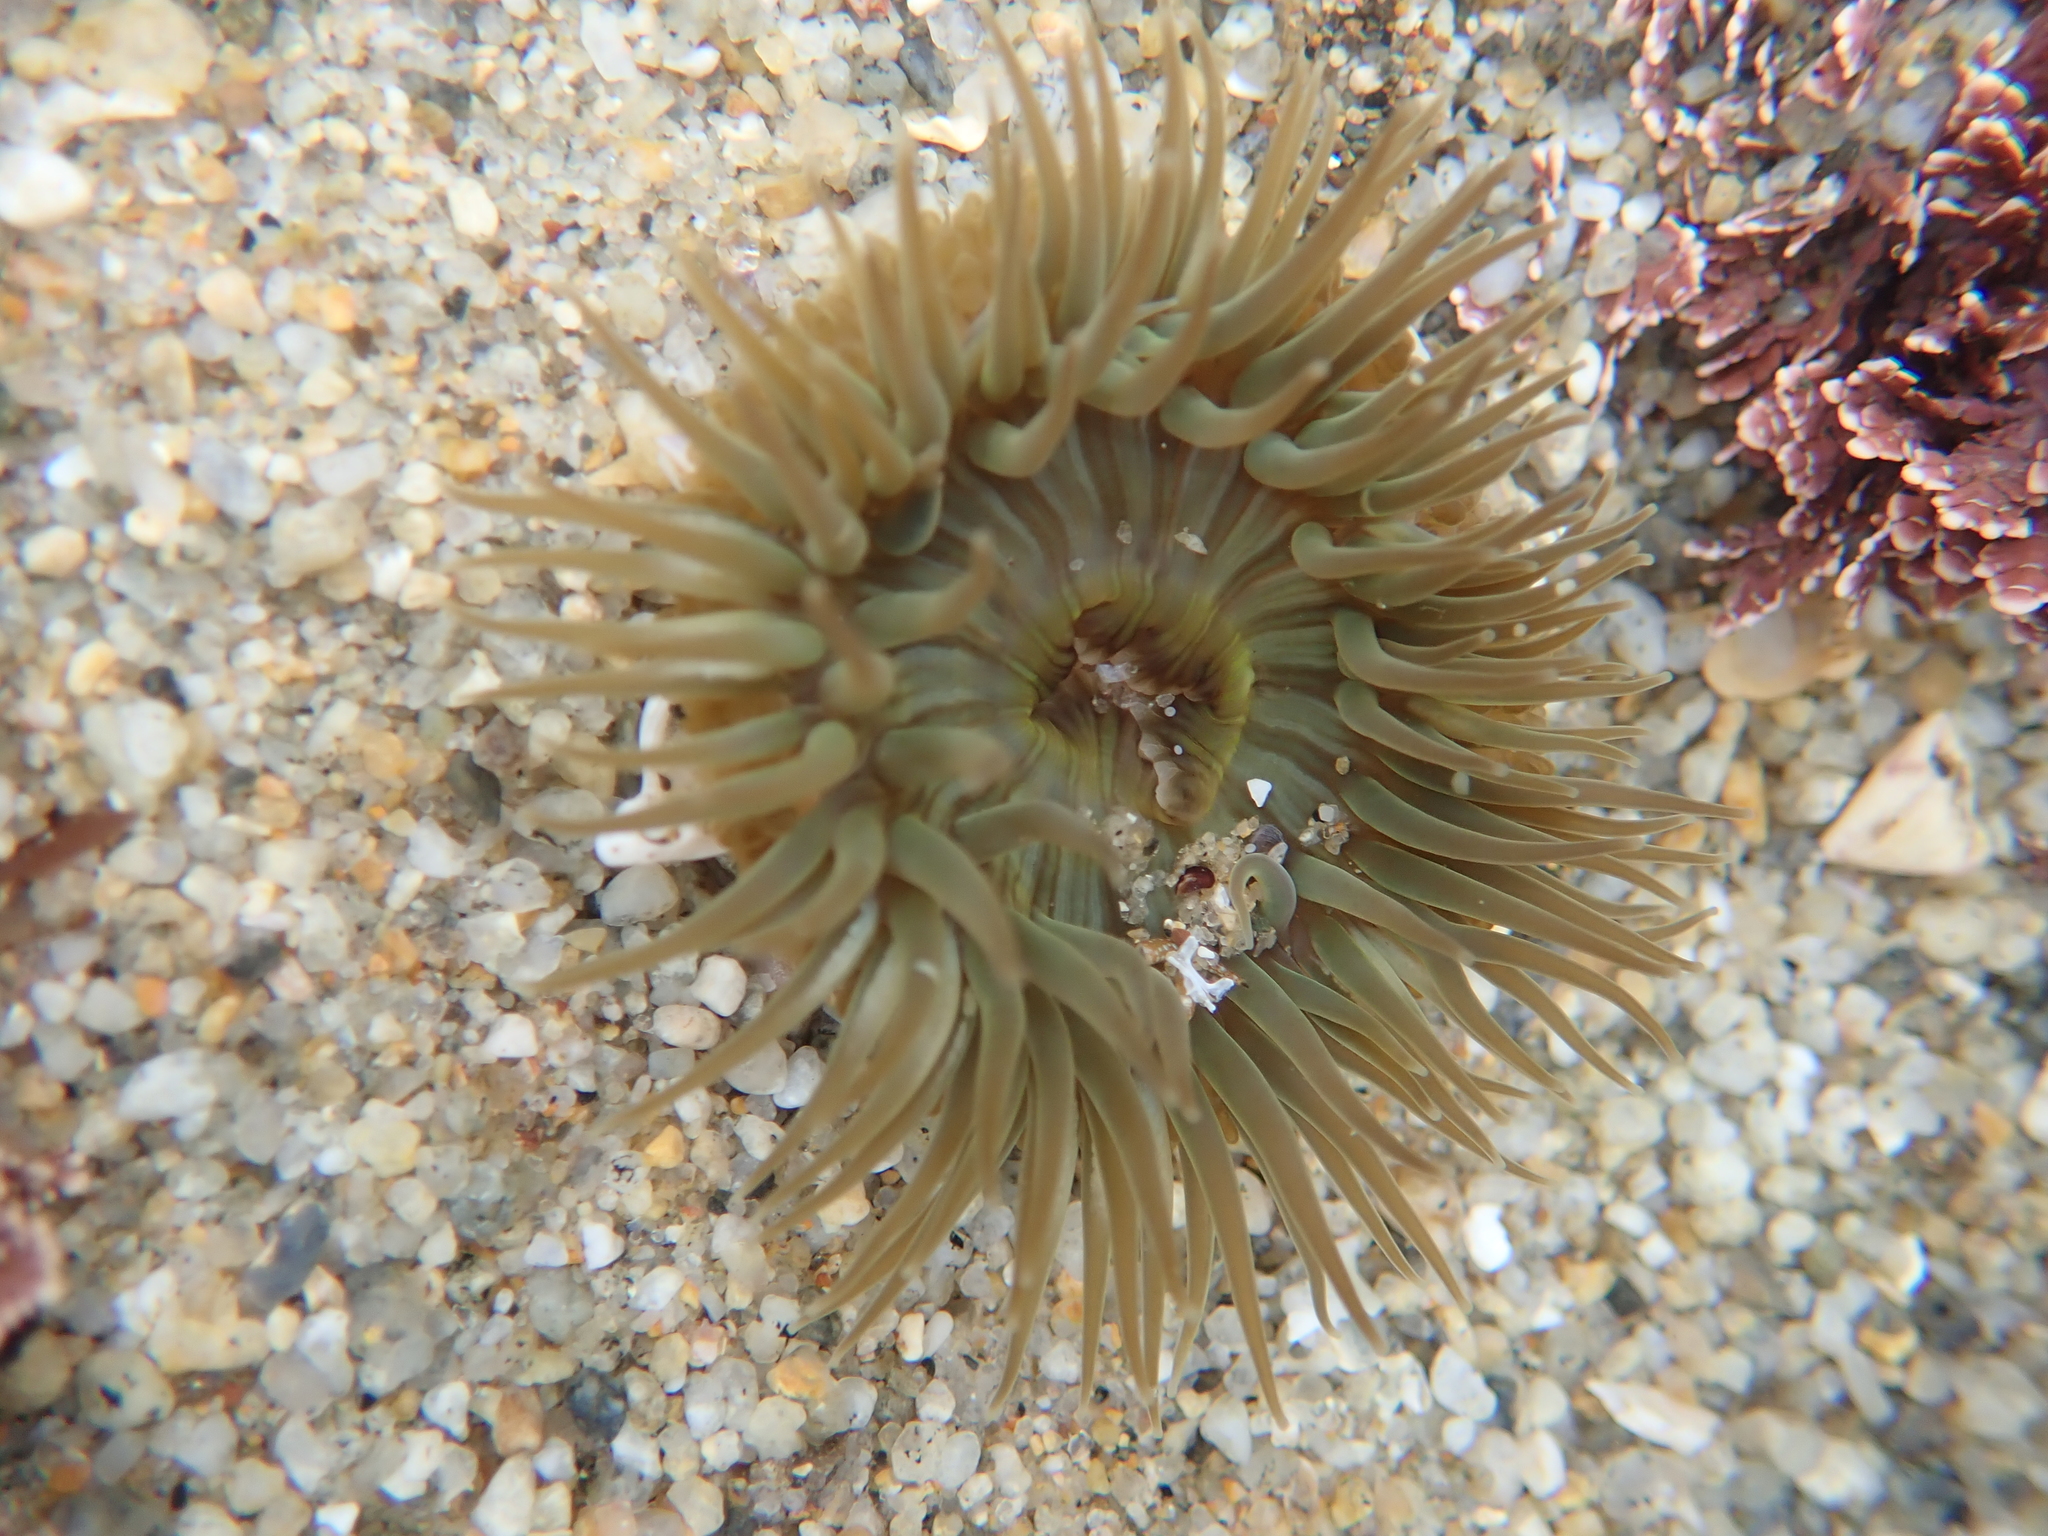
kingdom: Animalia
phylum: Cnidaria
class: Anthozoa
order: Actiniaria
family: Actiniidae
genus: Anthopleura
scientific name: Anthopleura sola
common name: Sun anemone
